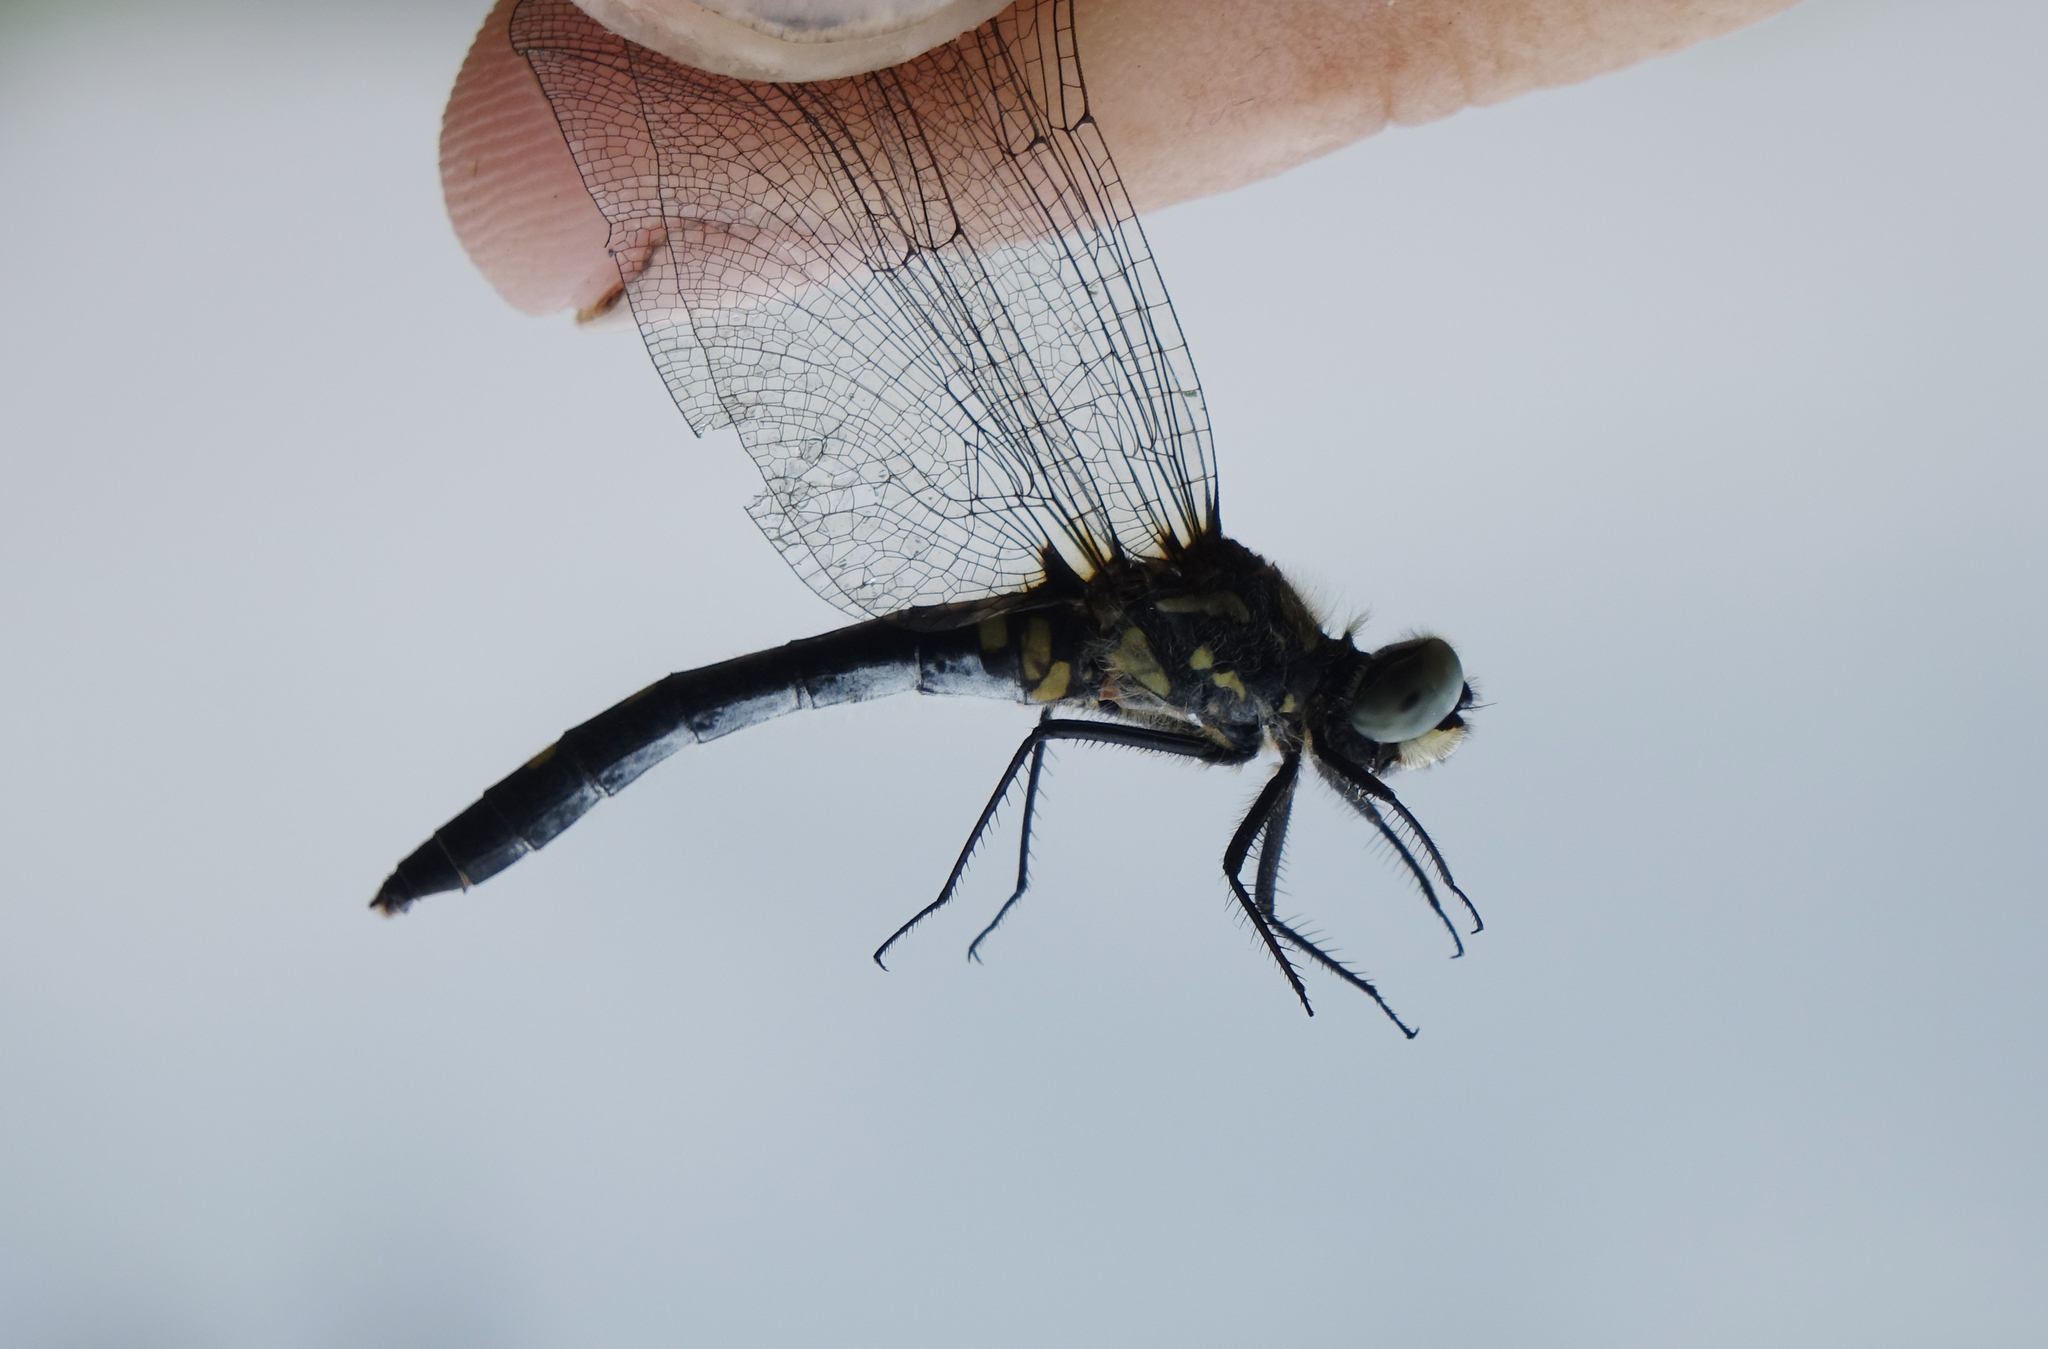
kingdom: Animalia
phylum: Arthropoda
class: Insecta
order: Odonata
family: Libellulidae
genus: Leucorrhinia
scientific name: Leucorrhinia intermedia
